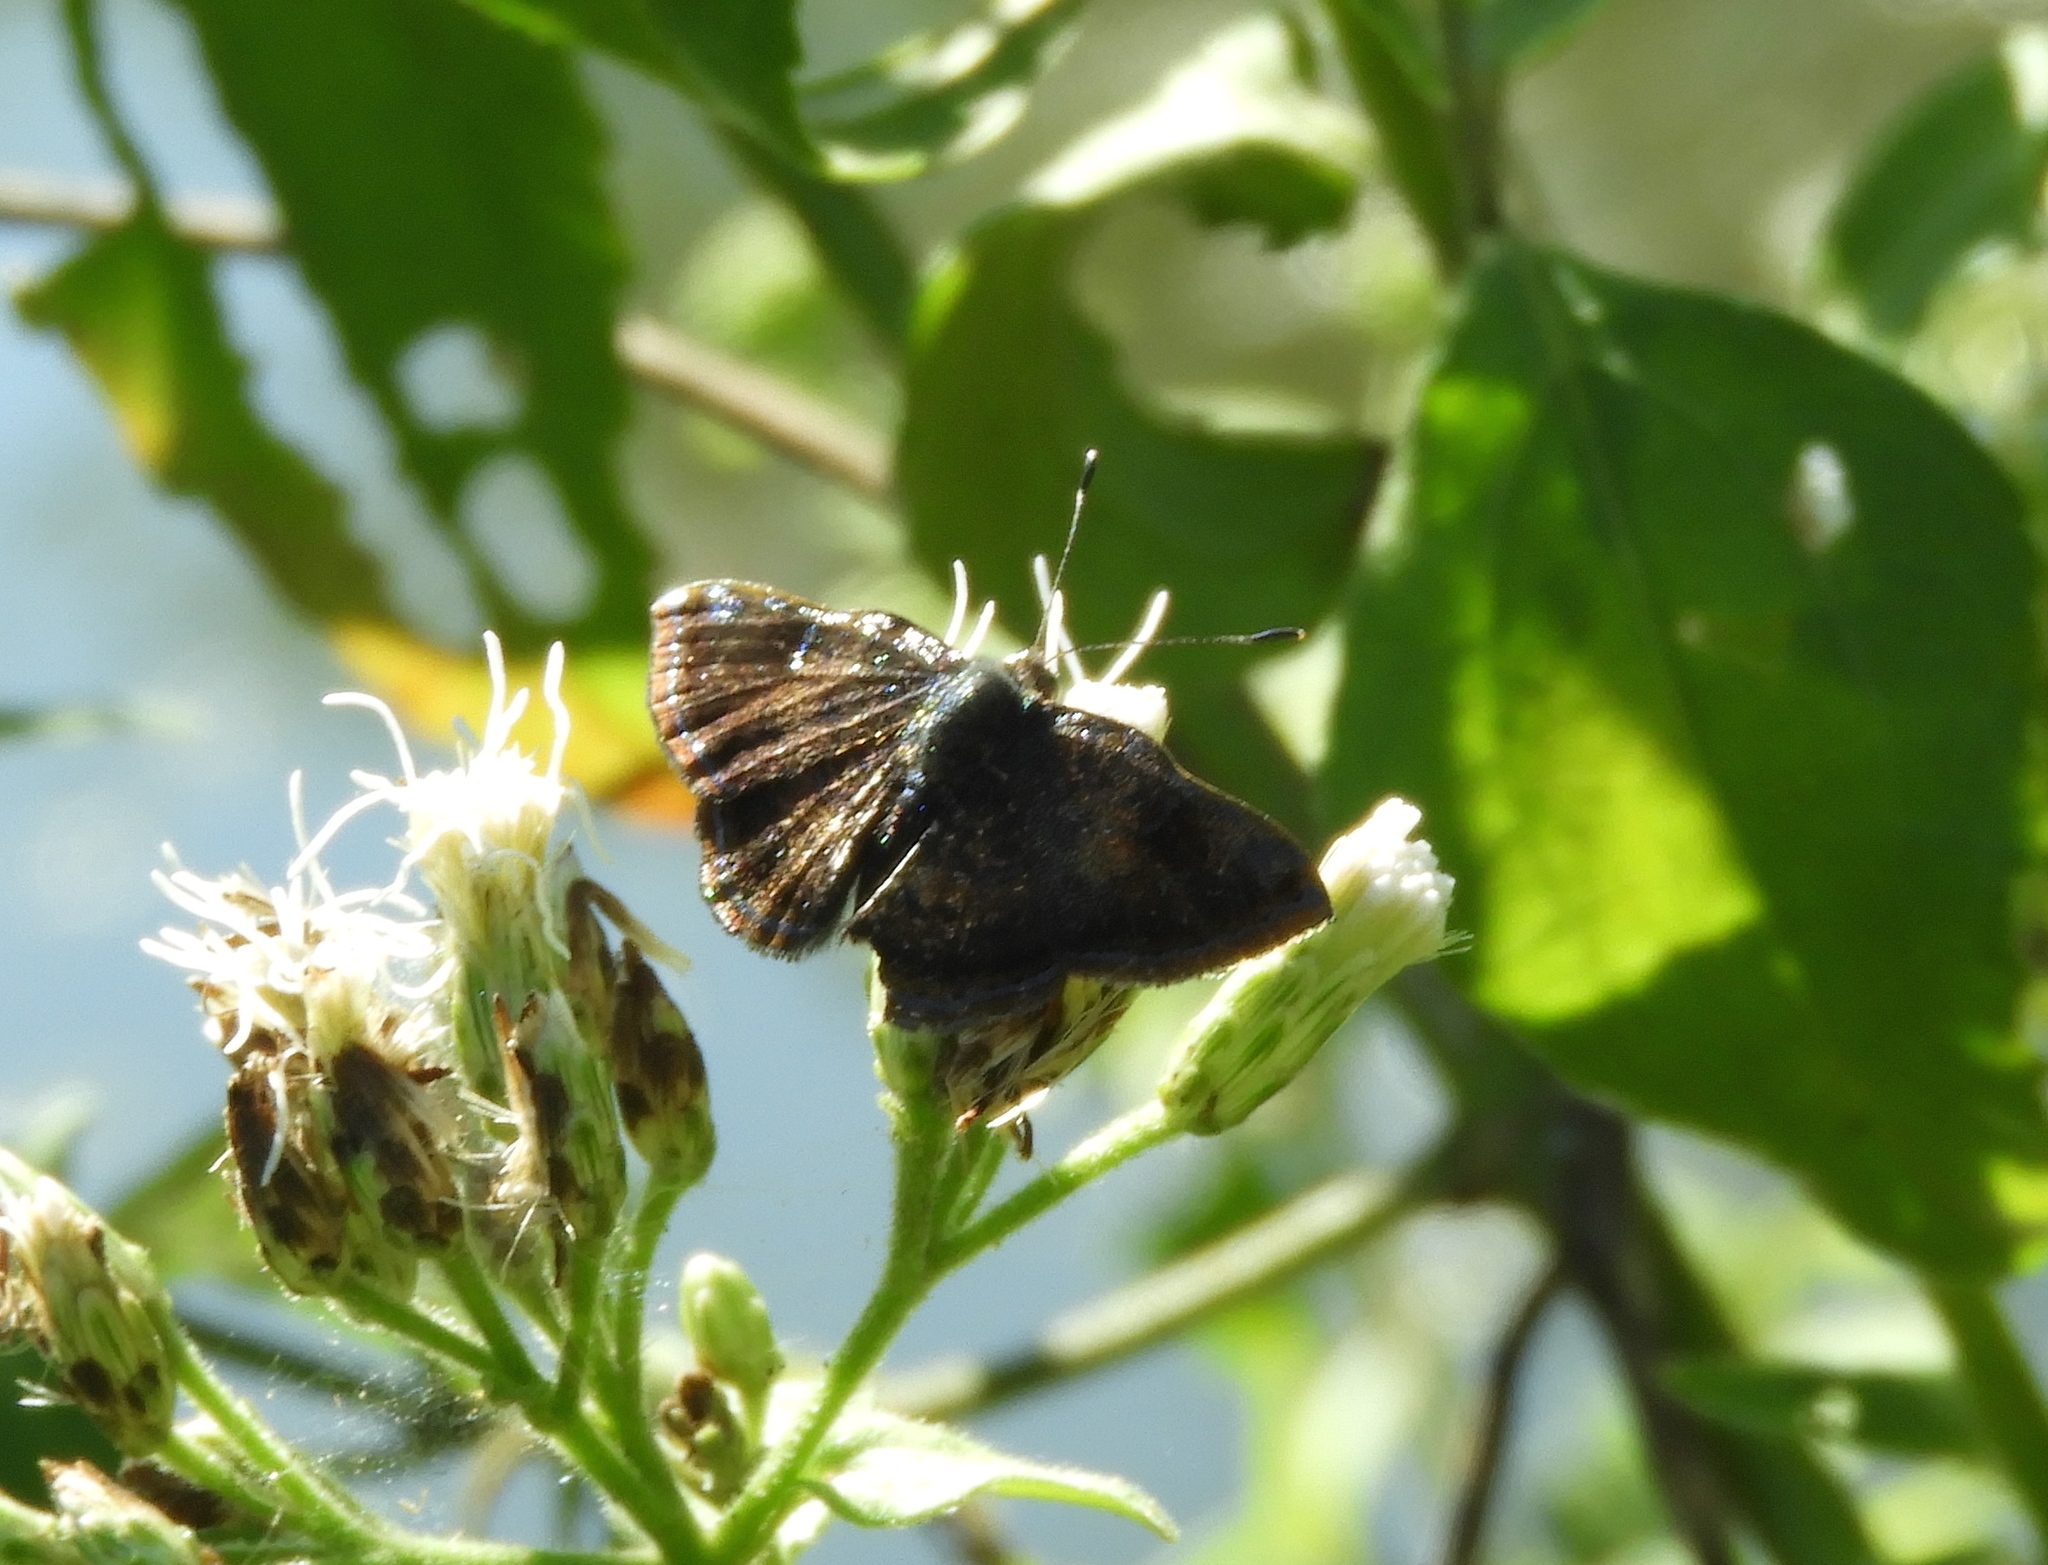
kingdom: Animalia
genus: Caria
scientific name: Caria ino
